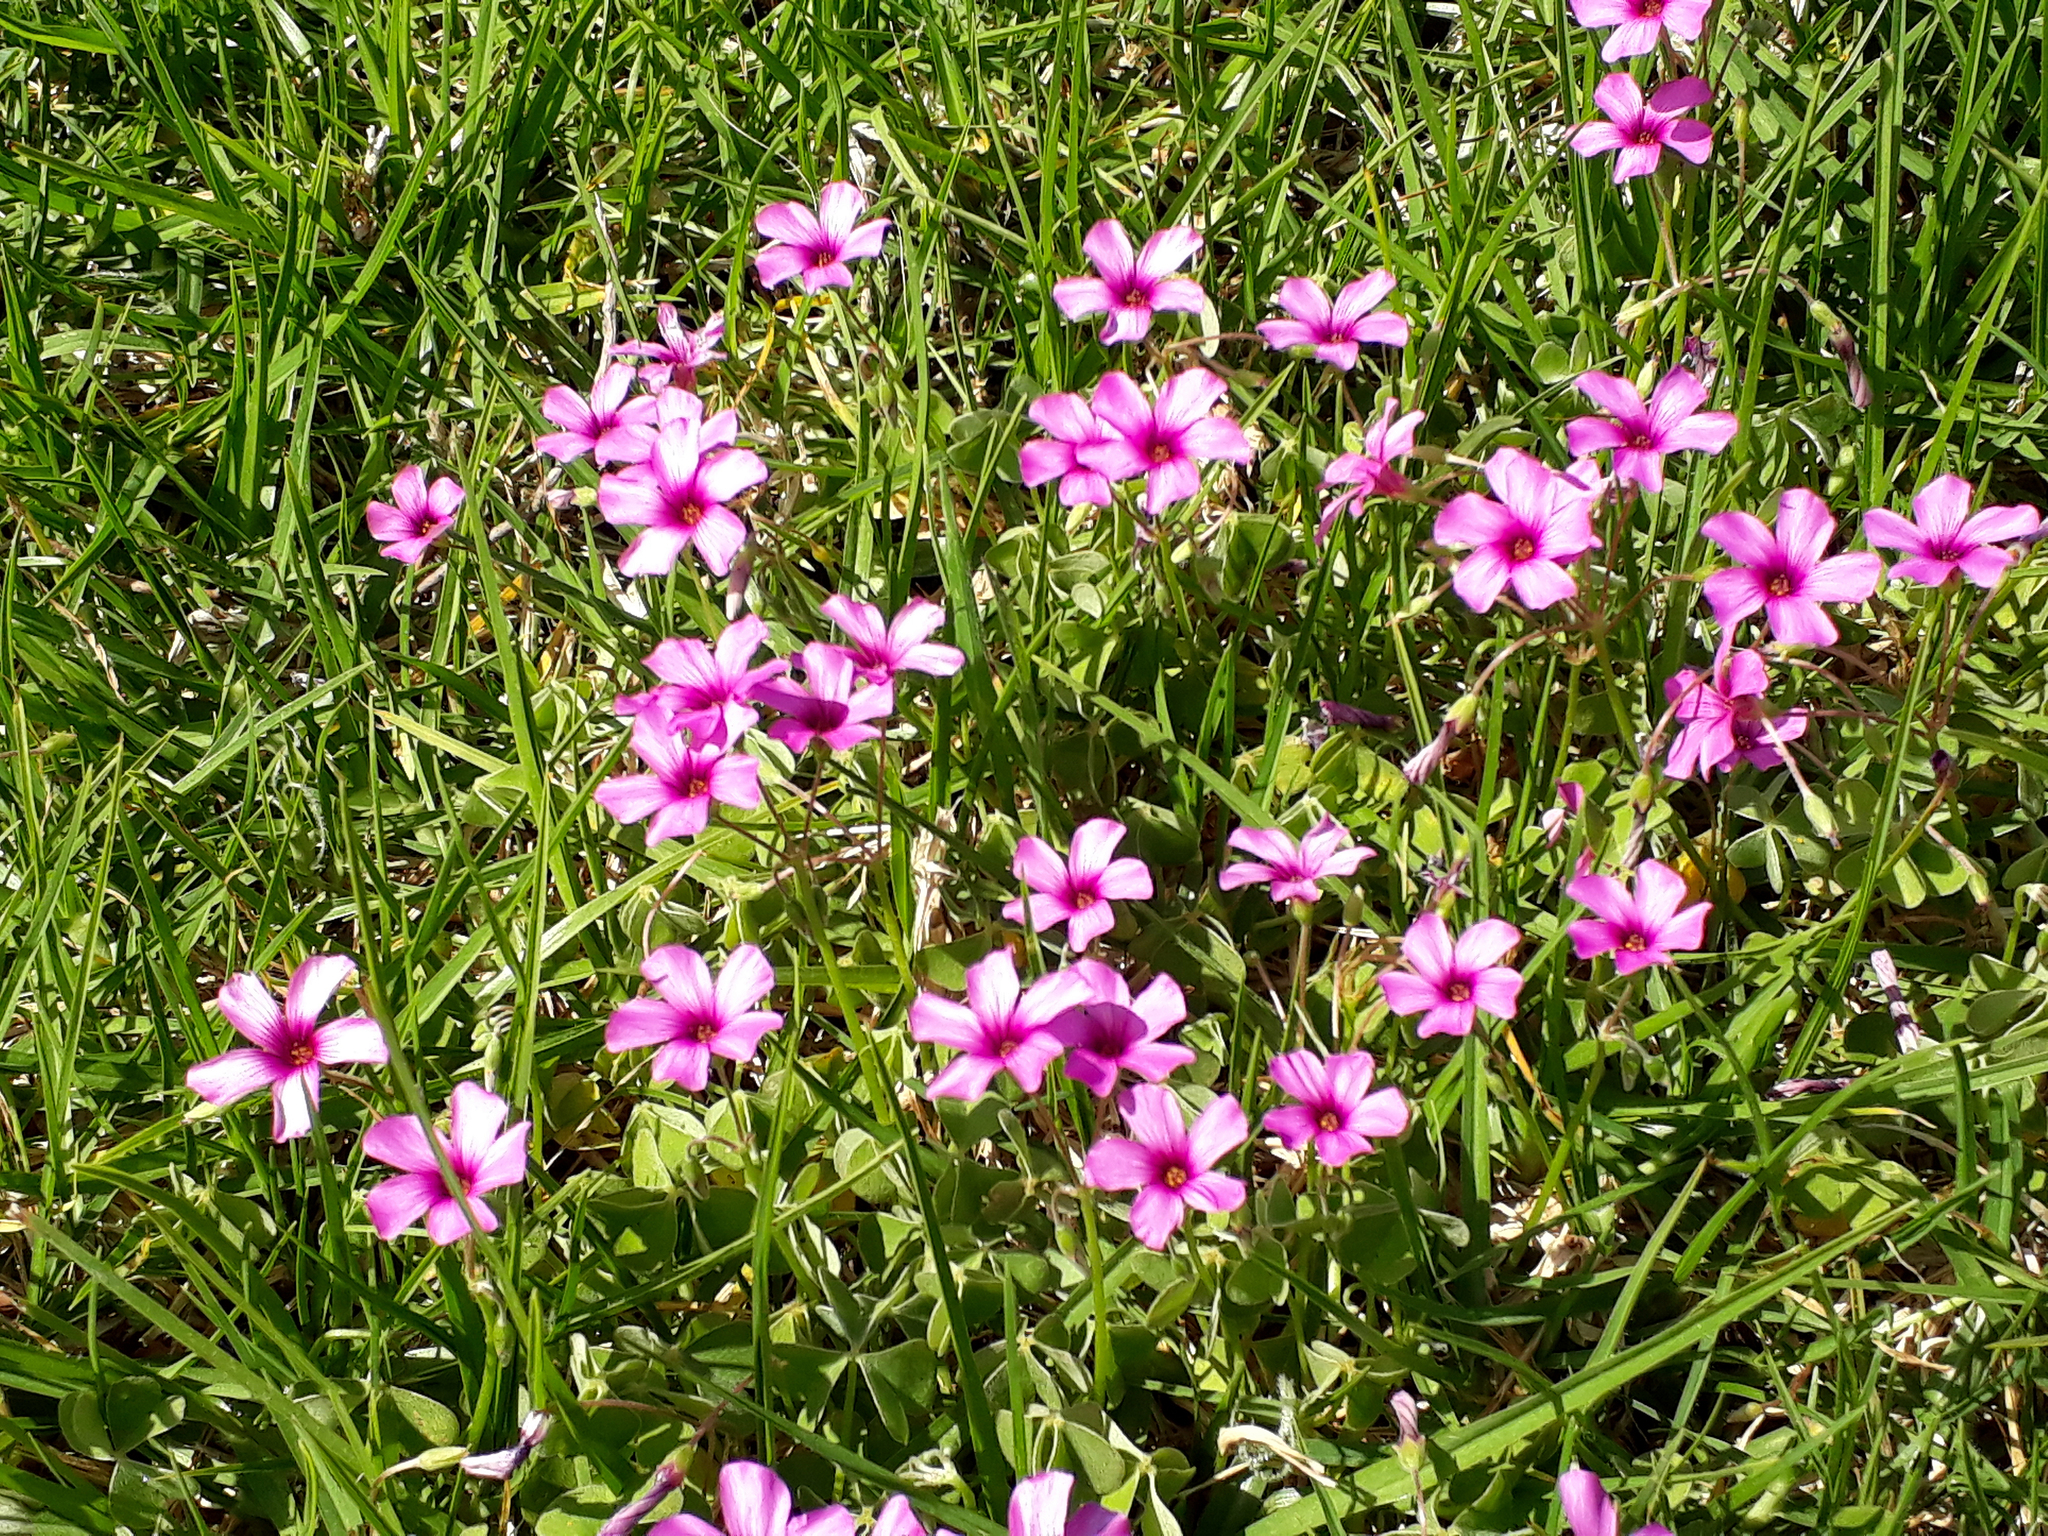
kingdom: Plantae
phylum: Tracheophyta
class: Magnoliopsida
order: Oxalidales
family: Oxalidaceae
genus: Oxalis
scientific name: Oxalis articulata
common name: Pink-sorrel
